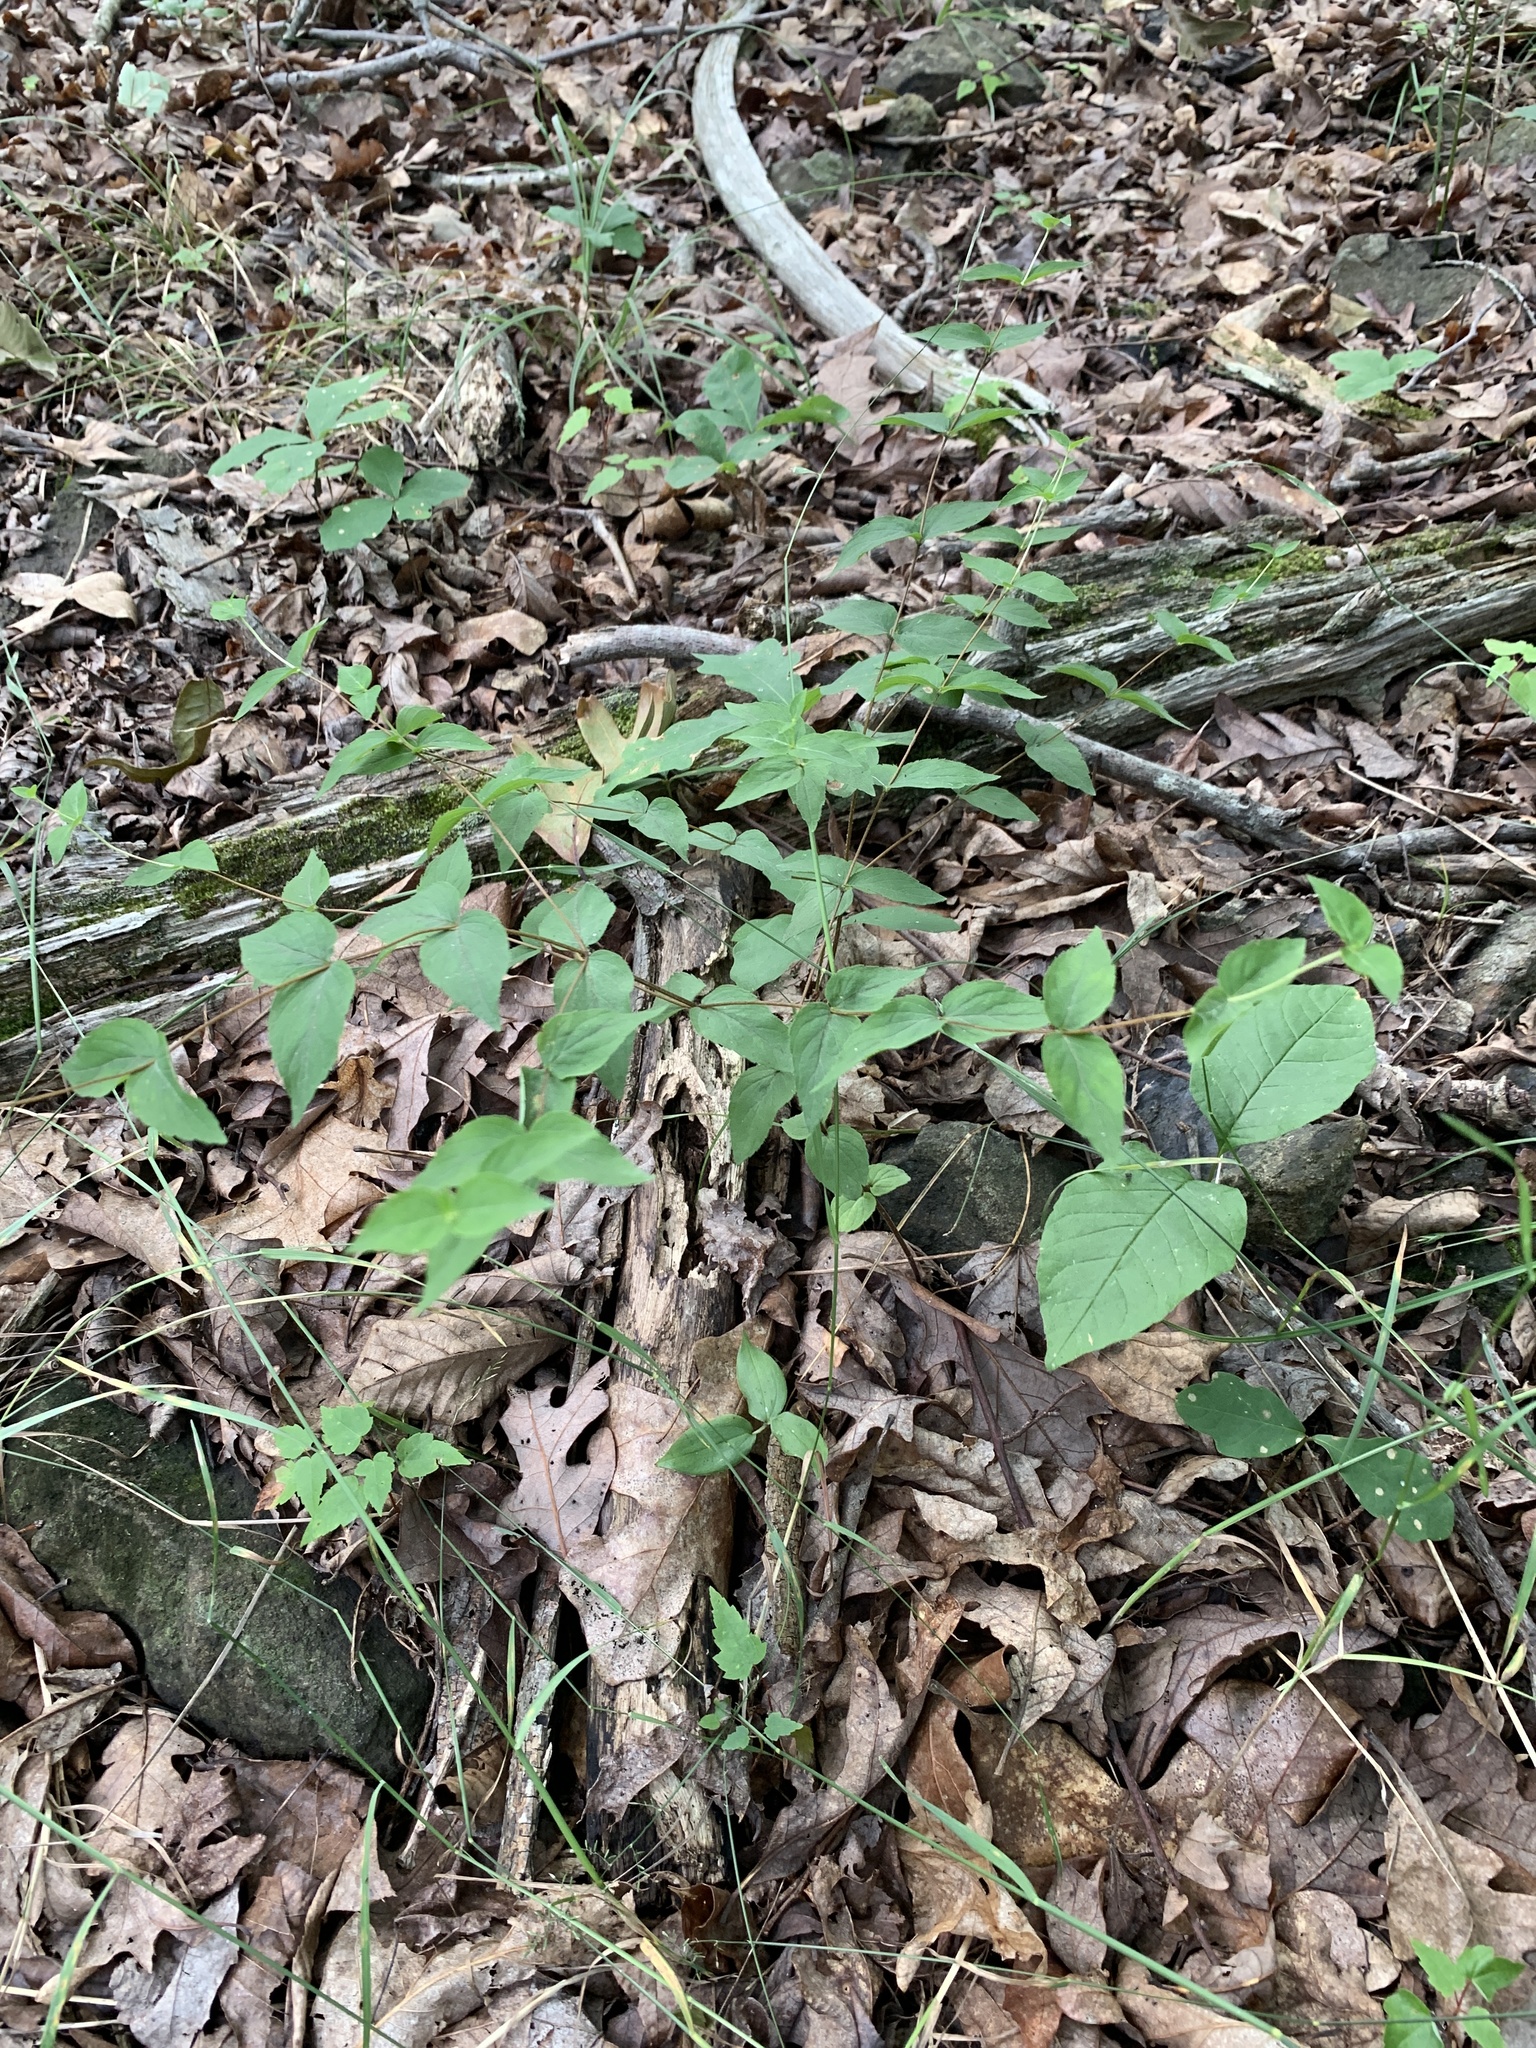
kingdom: Plantae
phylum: Tracheophyta
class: Magnoliopsida
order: Lamiales
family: Lamiaceae
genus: Cunila
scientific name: Cunila origanoides
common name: American dittany
